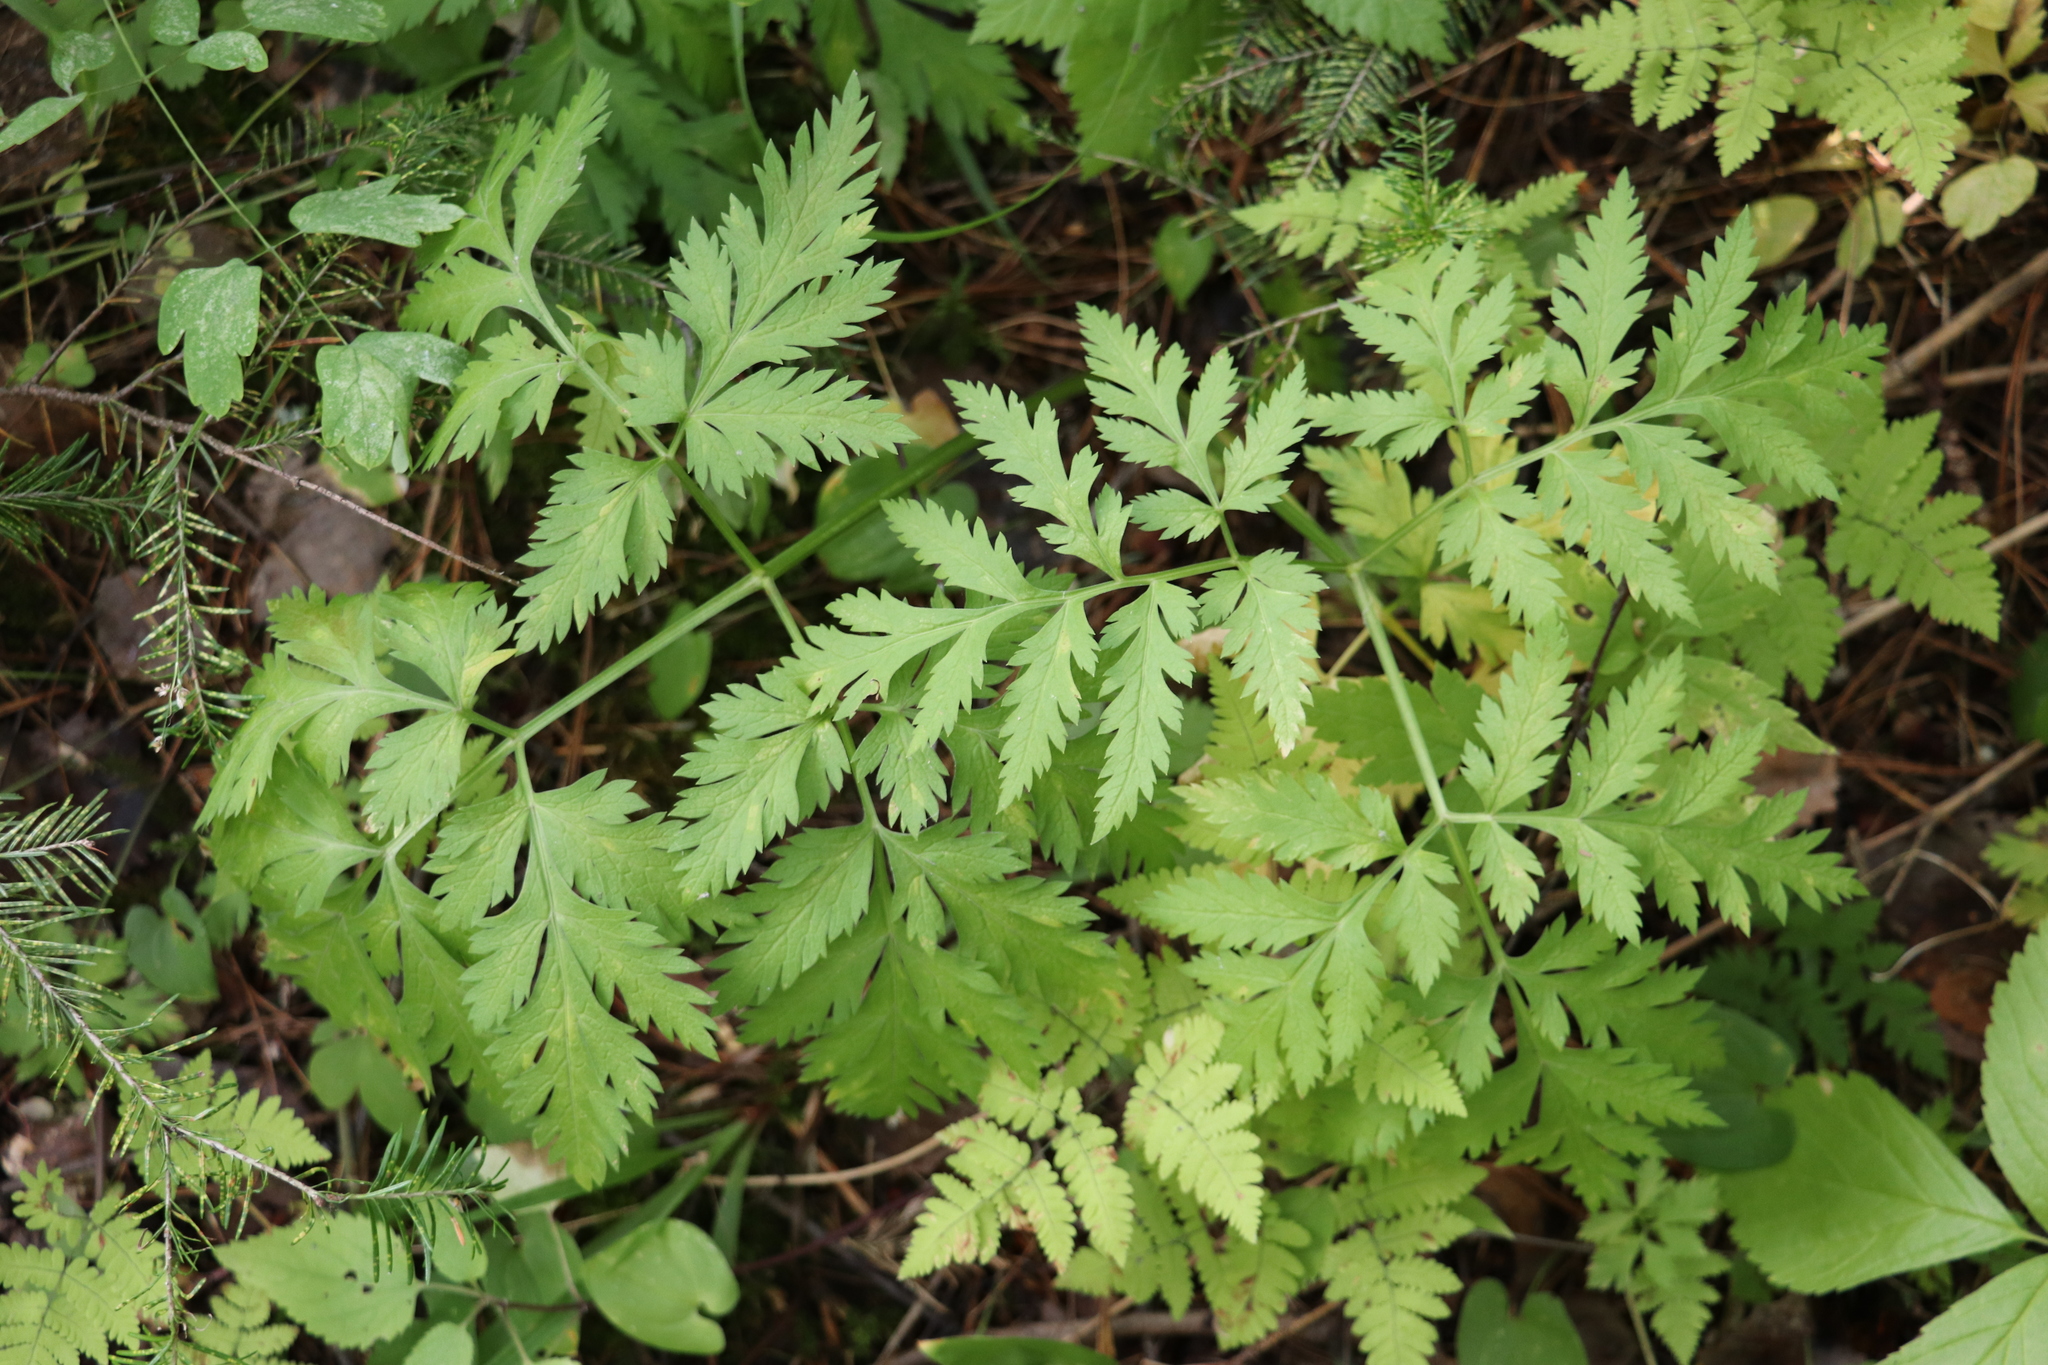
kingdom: Plantae
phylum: Tracheophyta
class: Magnoliopsida
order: Apiales
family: Apiaceae
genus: Pleurospermum
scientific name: Pleurospermum uralense
